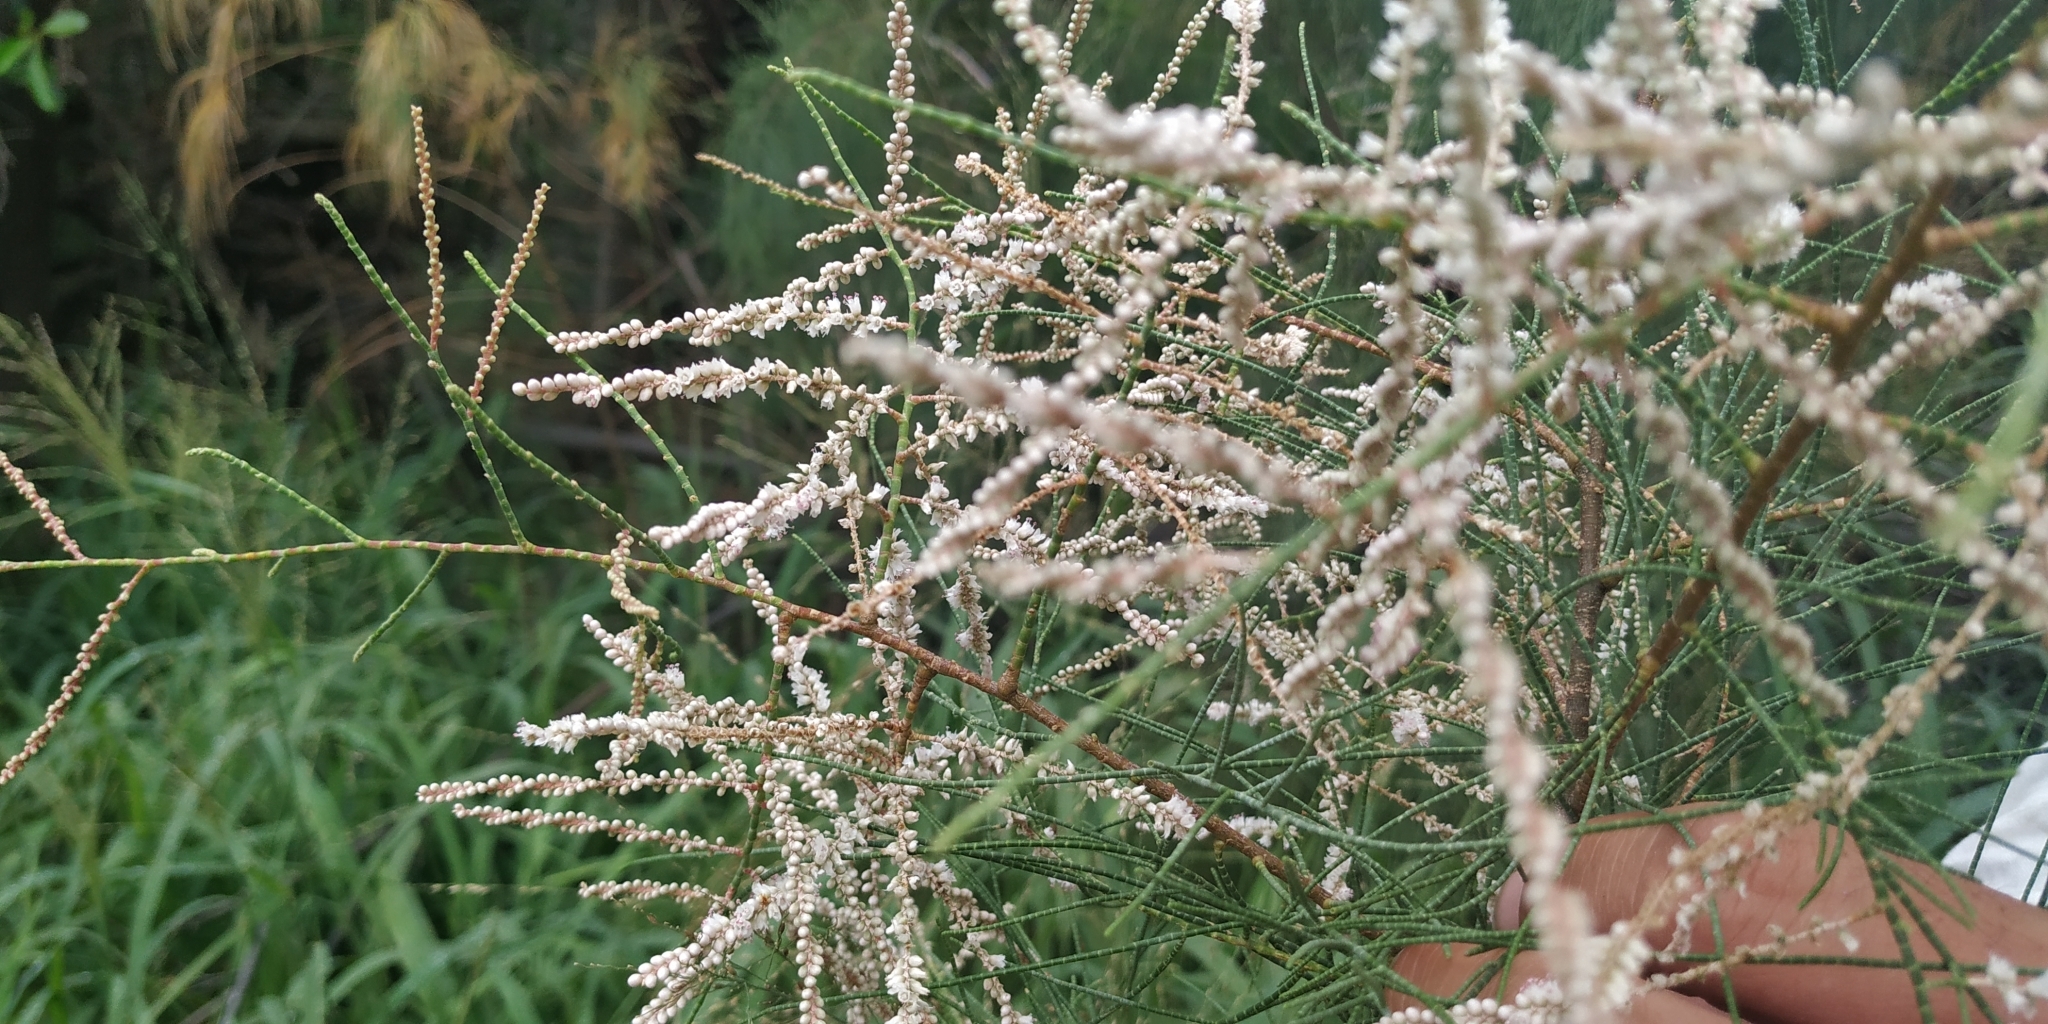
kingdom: Plantae
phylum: Tracheophyta
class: Magnoliopsida
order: Caryophyllales
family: Tamaricaceae
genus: Tamarix
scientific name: Tamarix aphylla
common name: Athel tamarisk
